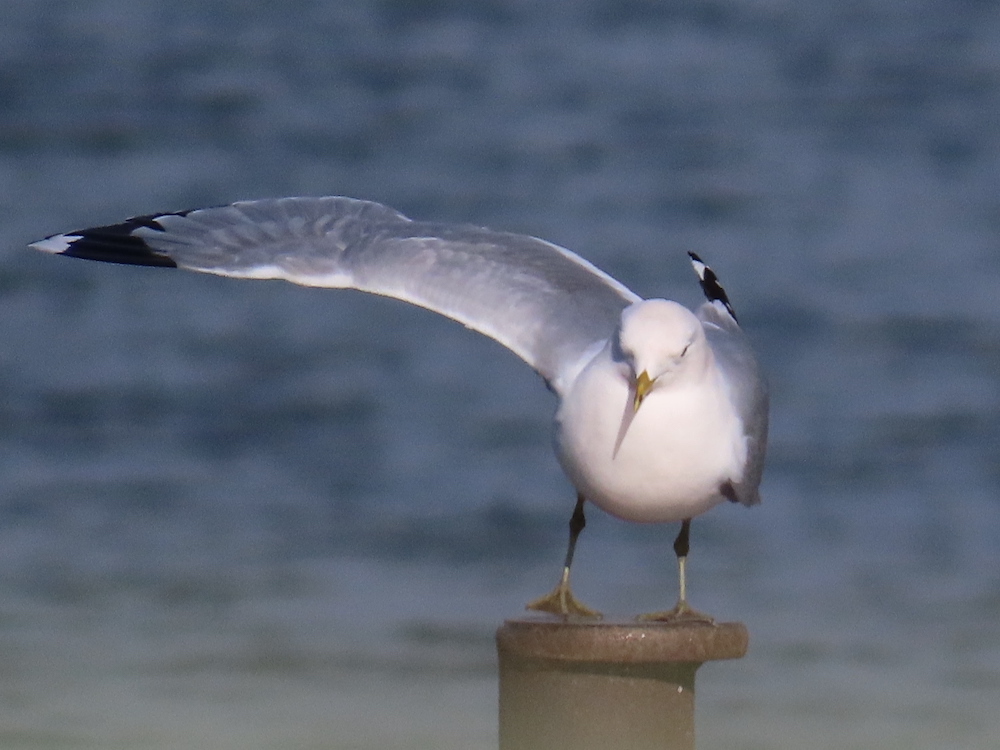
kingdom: Animalia
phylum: Chordata
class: Aves
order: Charadriiformes
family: Laridae
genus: Larus
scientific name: Larus canus
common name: Mew gull
